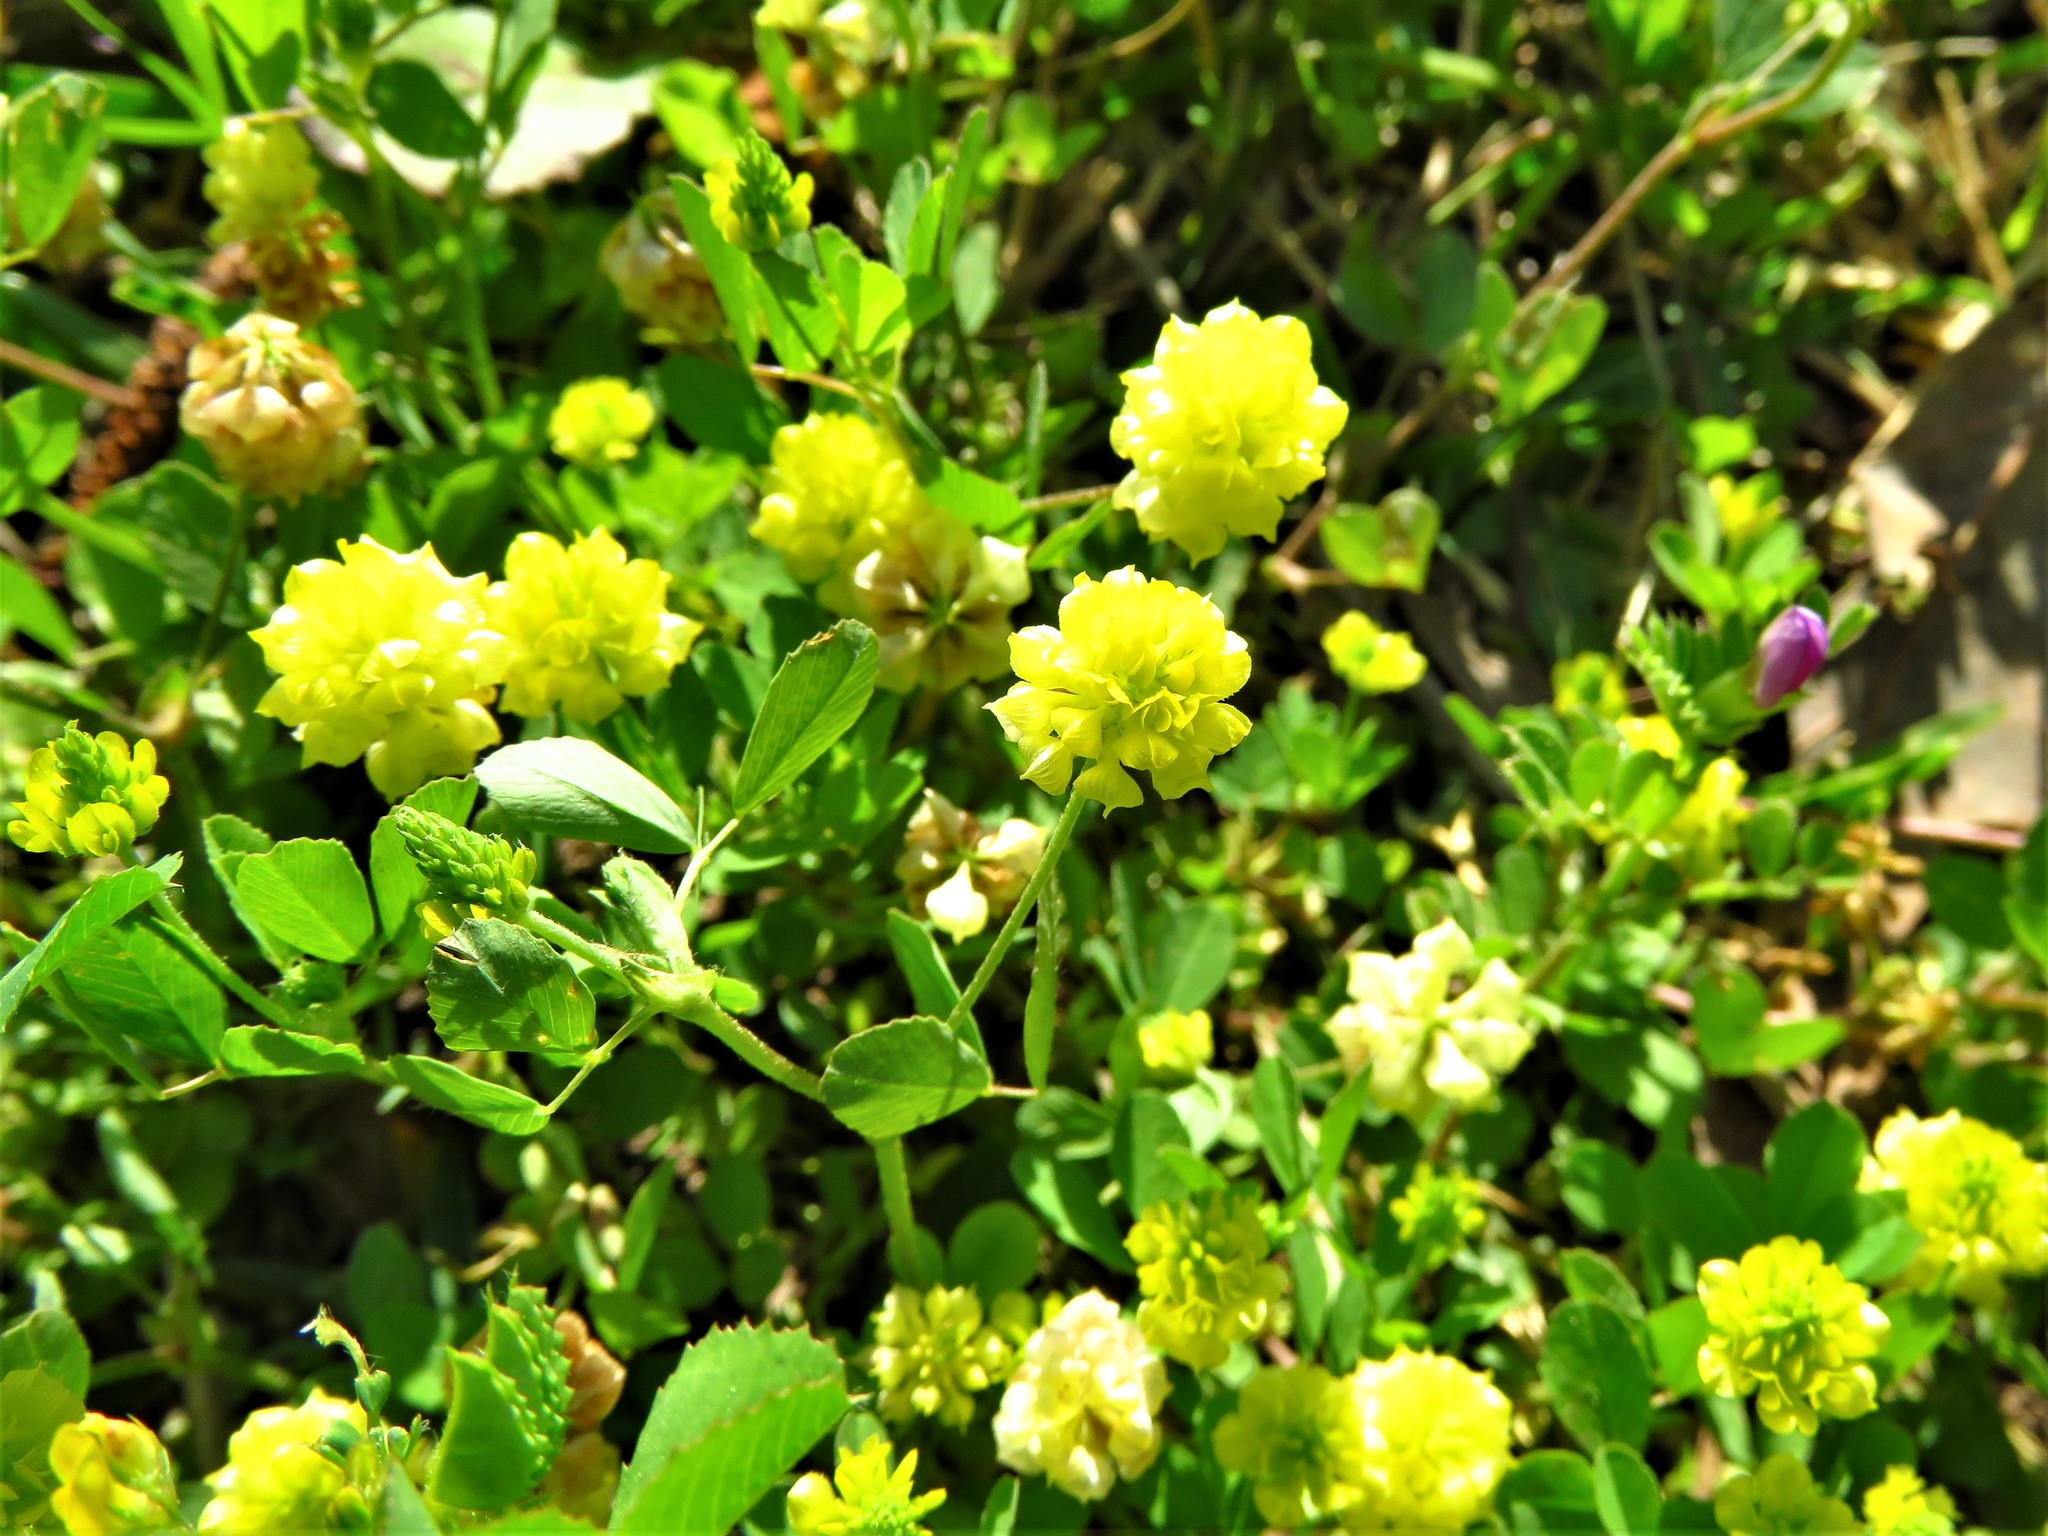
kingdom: Plantae
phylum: Tracheophyta
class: Magnoliopsida
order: Fabales
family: Fabaceae
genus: Trifolium
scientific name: Trifolium campestre
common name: Field clover
